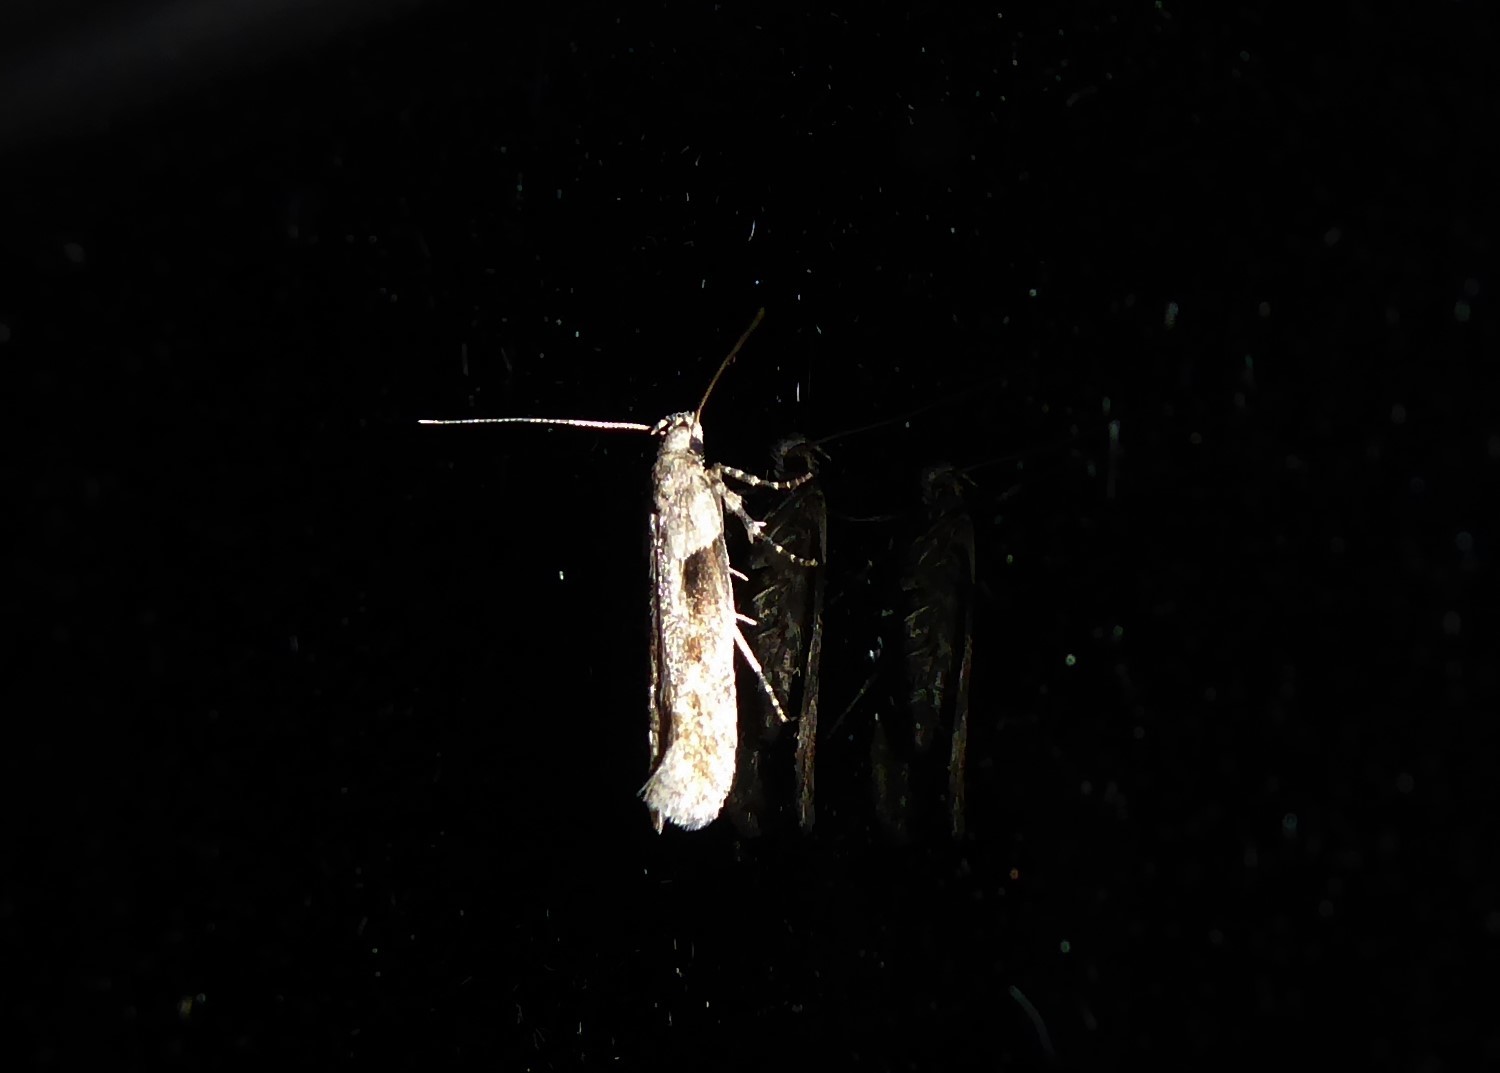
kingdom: Animalia
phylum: Arthropoda
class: Insecta
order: Lepidoptera
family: Gelechiidae
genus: Symmetrischema
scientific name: Symmetrischema tangolias
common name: Moth
